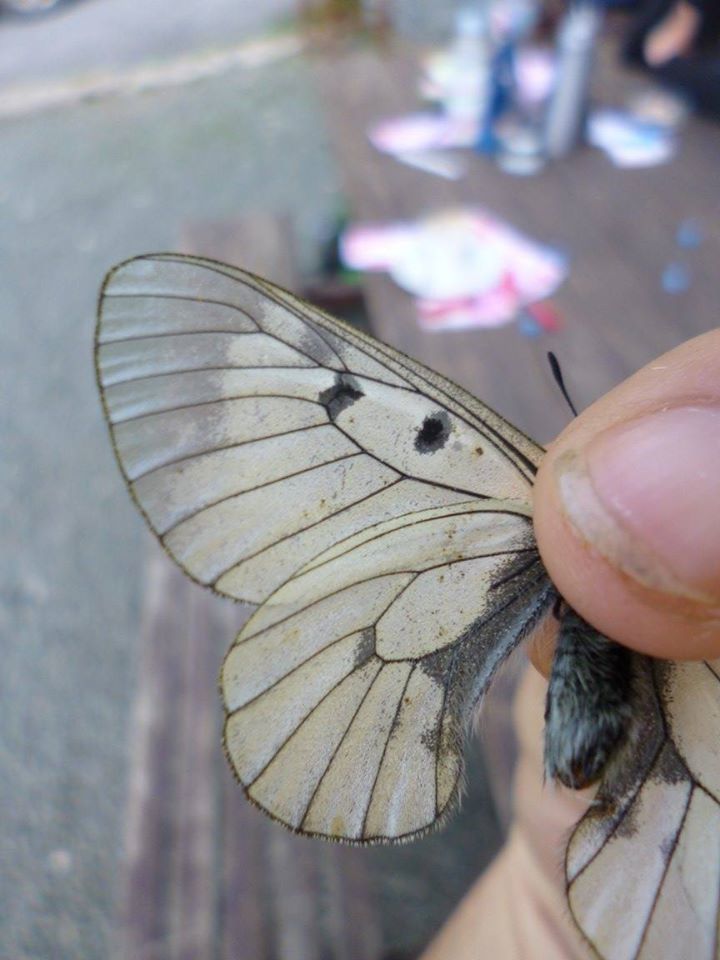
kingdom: Animalia
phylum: Arthropoda
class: Insecta
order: Lepidoptera
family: Papilionidae
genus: Parnassius
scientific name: Parnassius mnemosyne
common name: Clouded apollo
